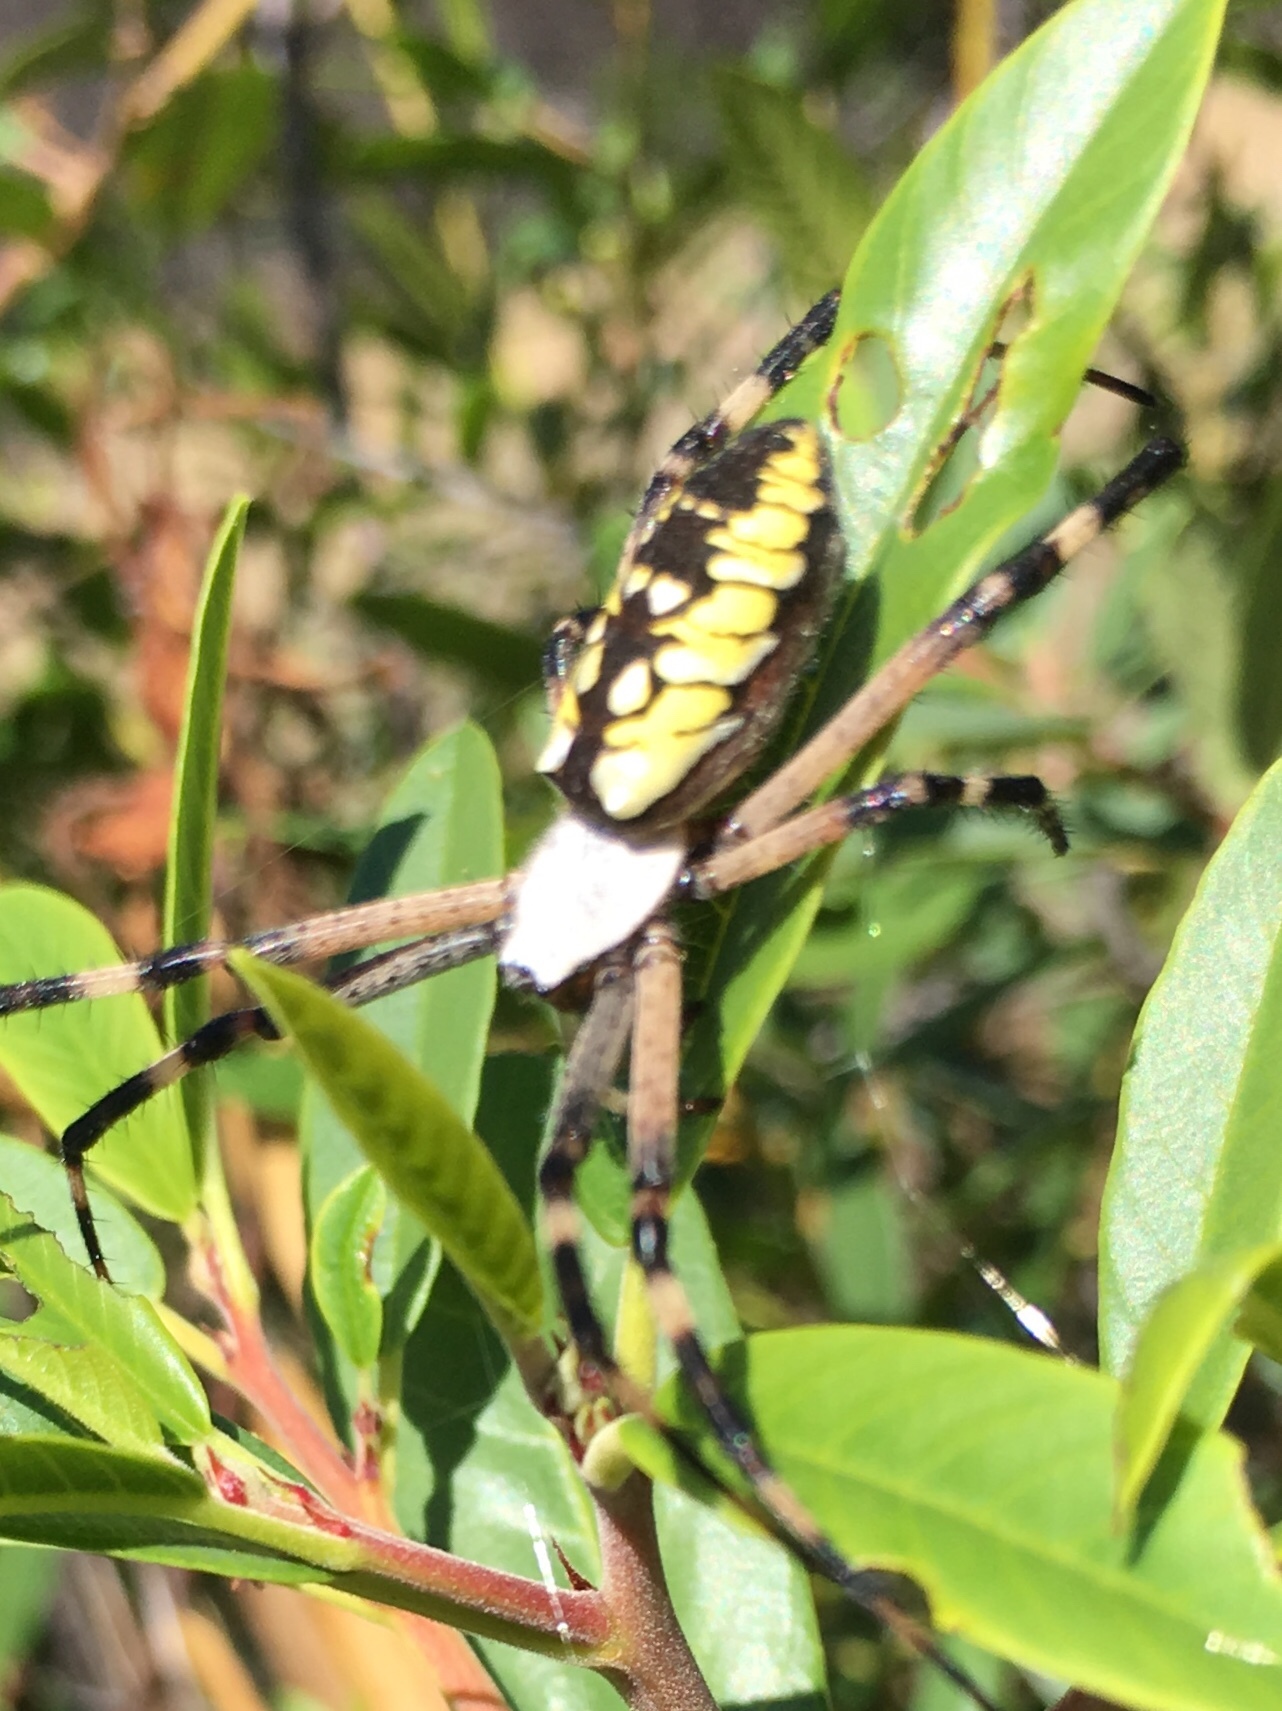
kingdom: Animalia
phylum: Arthropoda
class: Arachnida
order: Araneae
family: Araneidae
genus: Argiope
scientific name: Argiope aurantia
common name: Orb weavers
